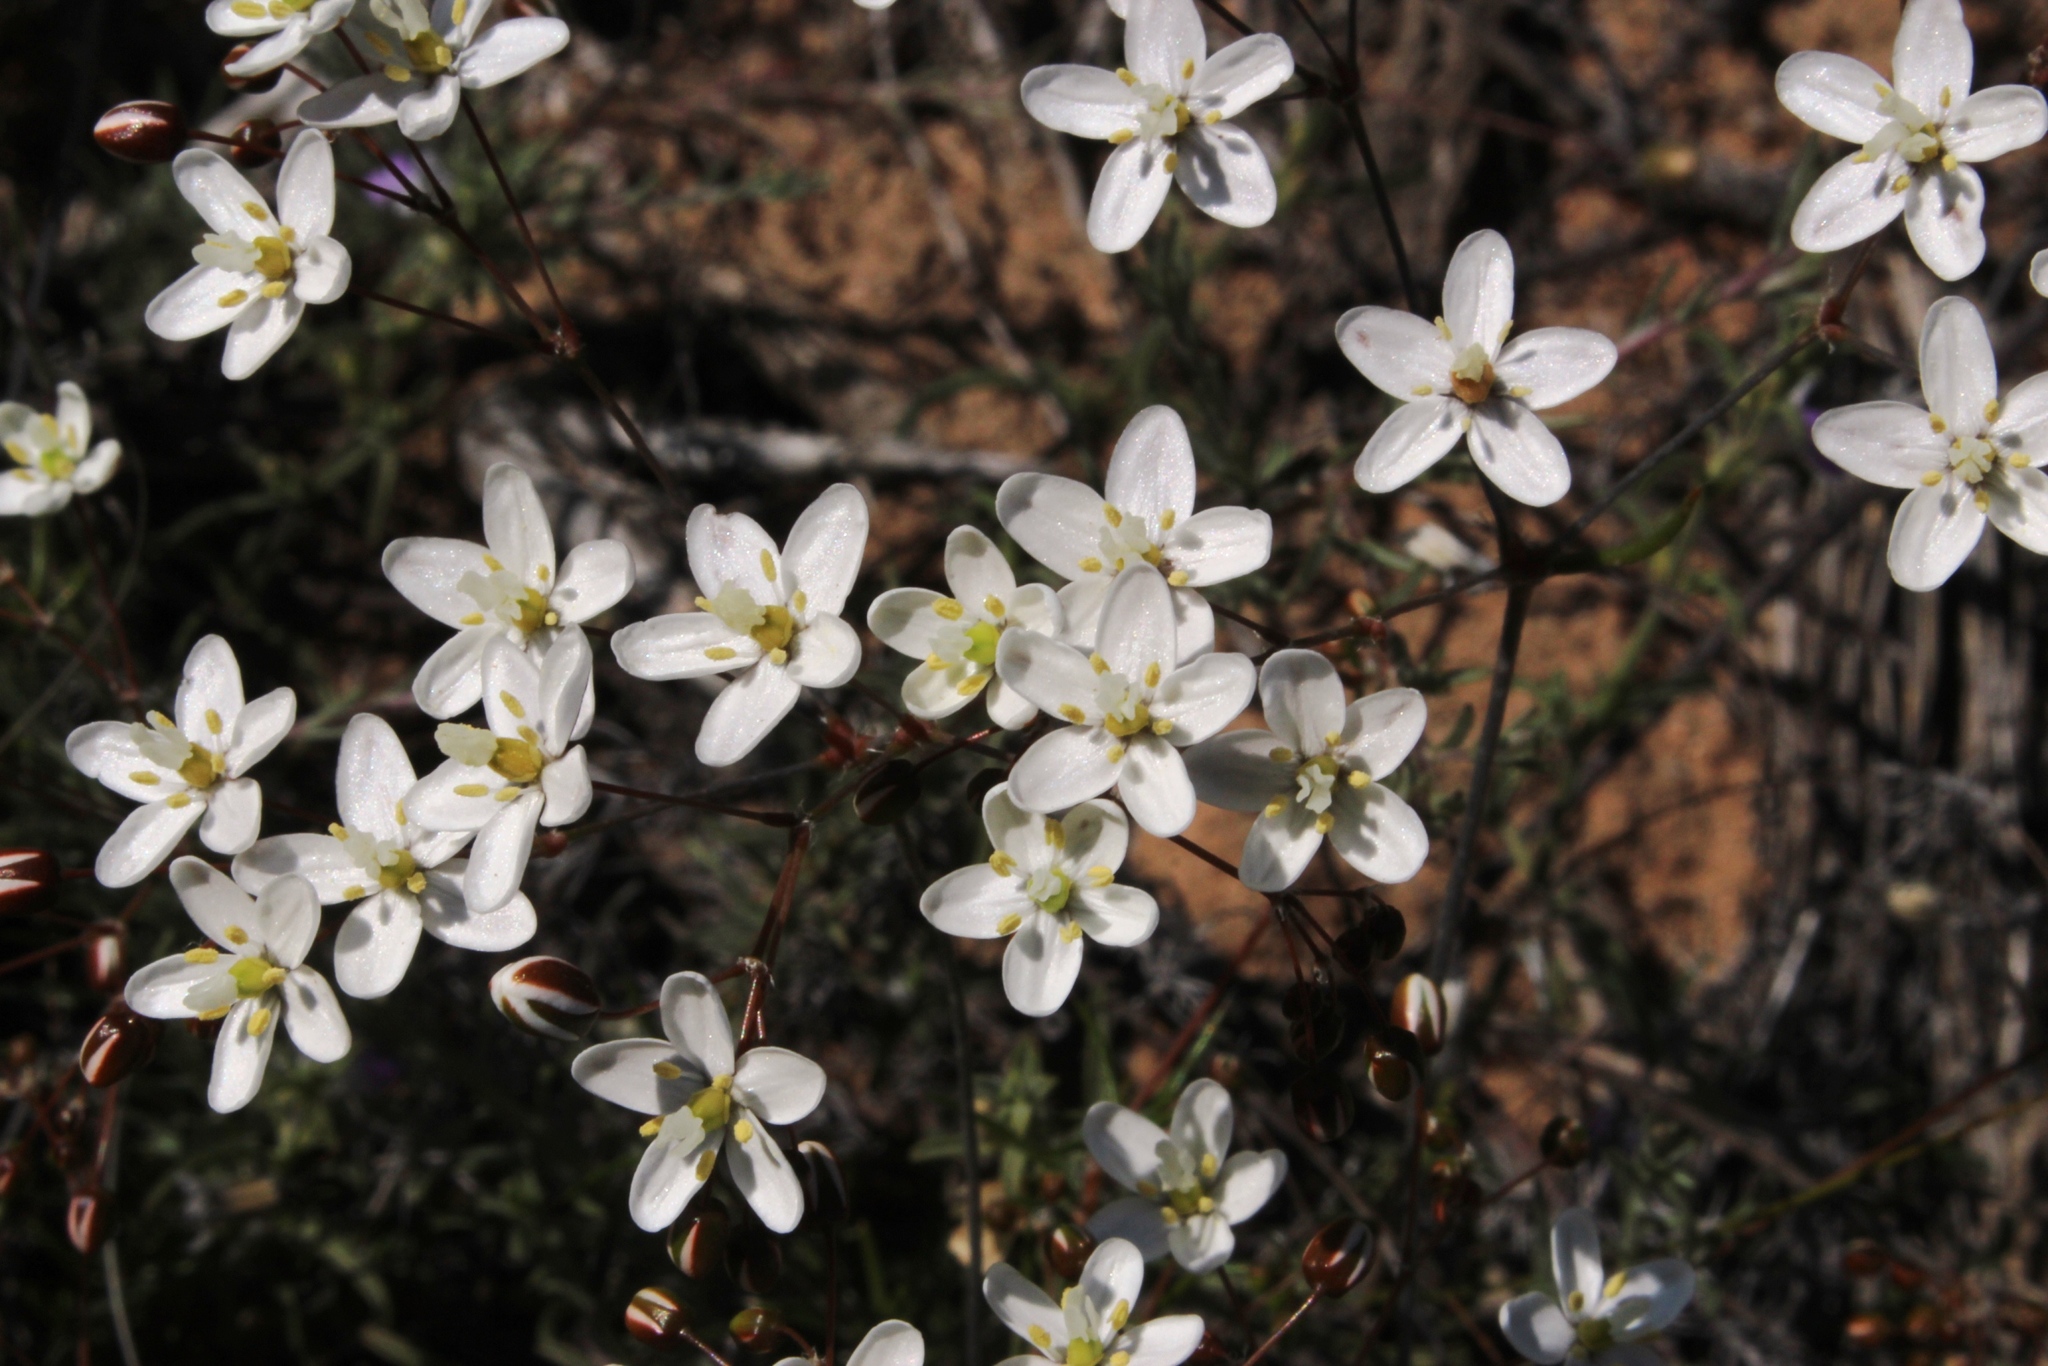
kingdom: Plantae
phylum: Tracheophyta
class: Magnoliopsida
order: Caryophyllales
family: Molluginaceae
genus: Pharnaceum
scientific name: Pharnaceum lanatum
